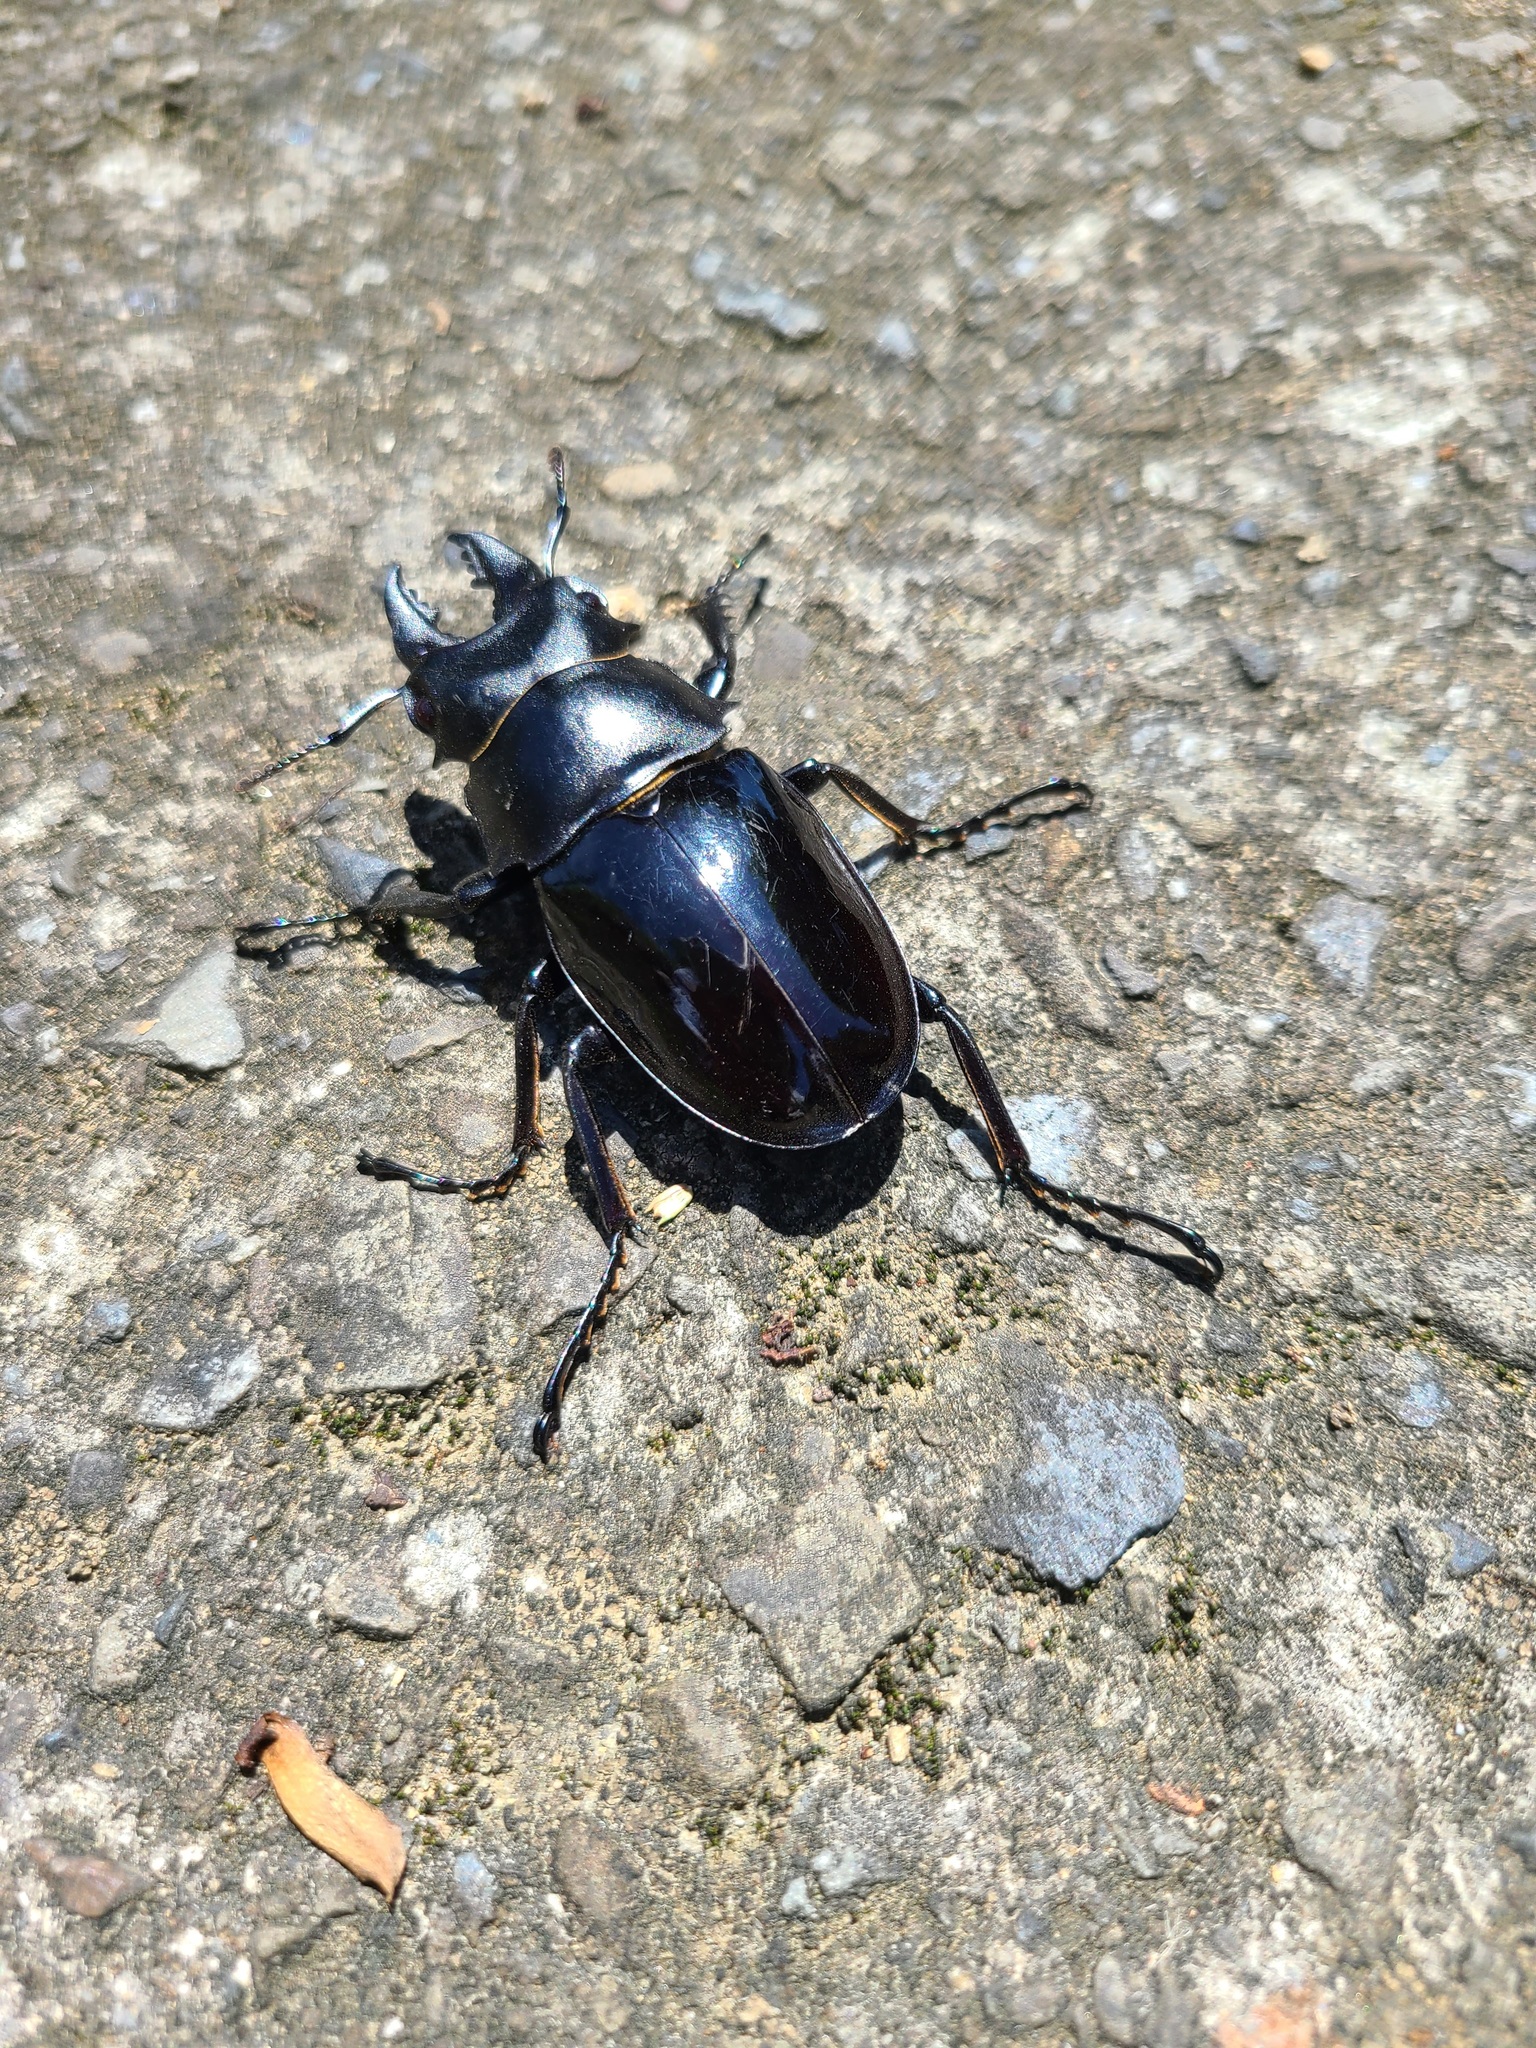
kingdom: Animalia
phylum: Arthropoda
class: Insecta
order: Coleoptera
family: Lucanidae
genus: Odontolabis
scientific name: Odontolabis siva
